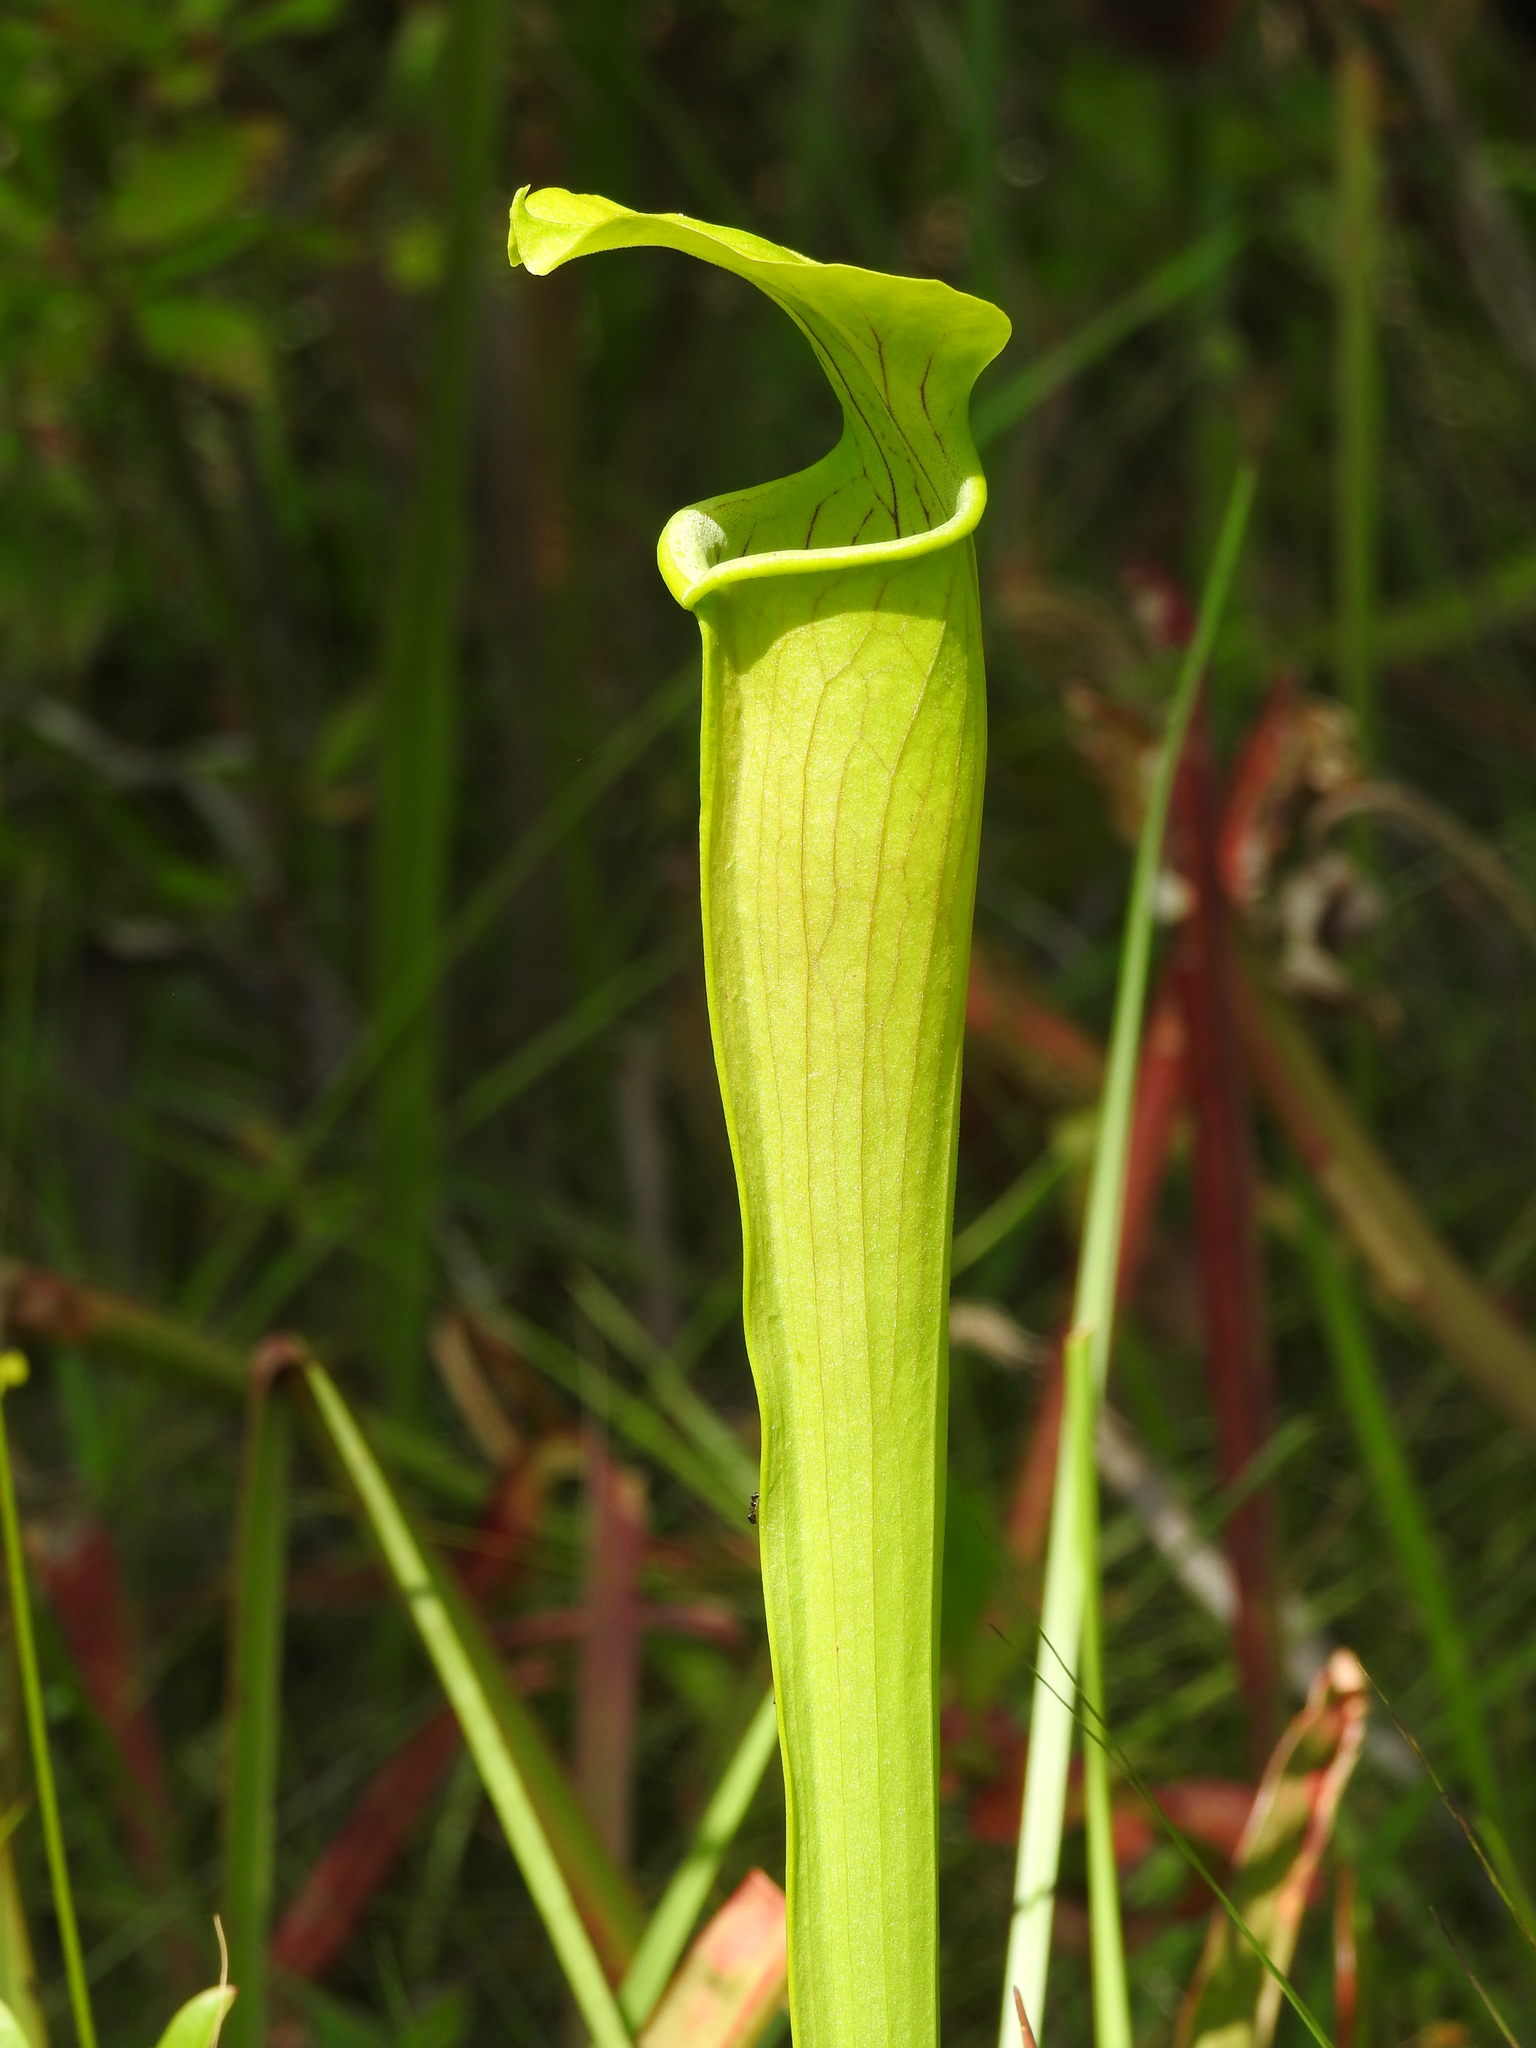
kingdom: Plantae
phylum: Tracheophyta
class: Magnoliopsida
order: Ericales
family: Sarraceniaceae
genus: Sarracenia
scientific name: Sarracenia alata
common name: Yellow trumpets
